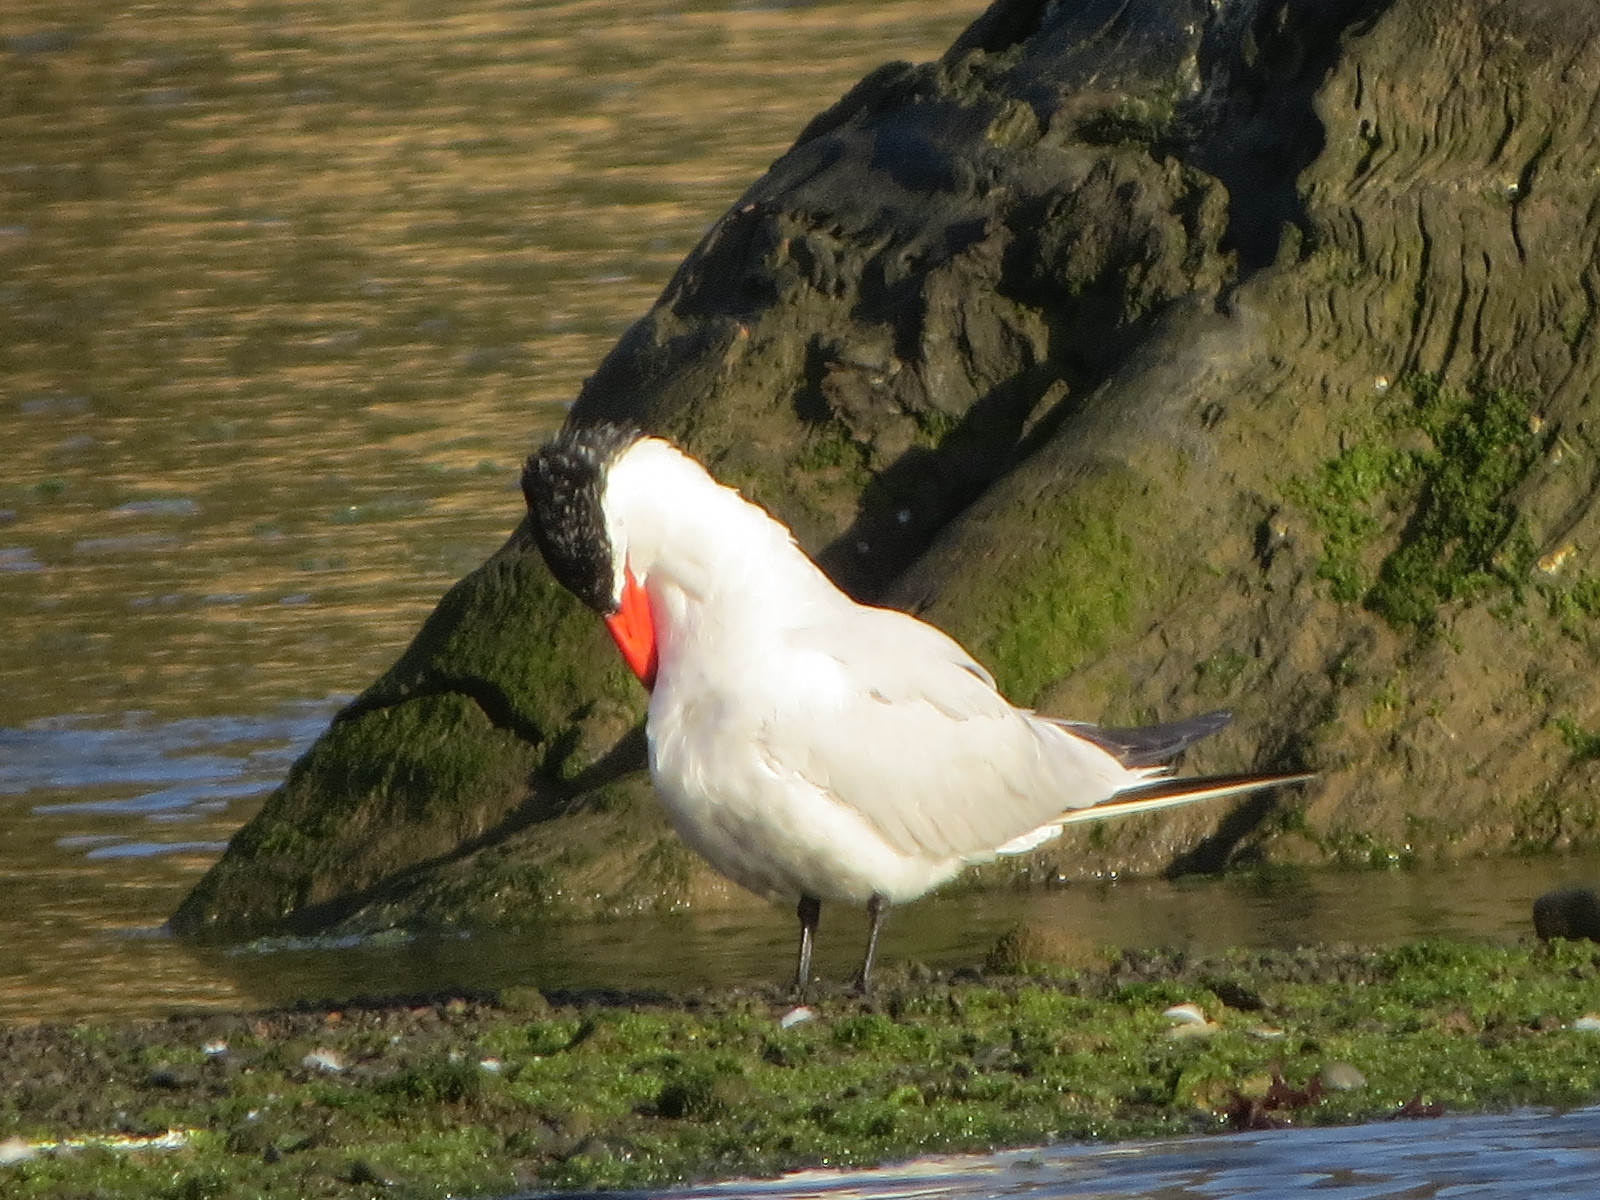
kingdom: Animalia
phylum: Chordata
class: Aves
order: Charadriiformes
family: Laridae
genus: Hydroprogne
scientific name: Hydroprogne caspia
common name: Caspian tern
